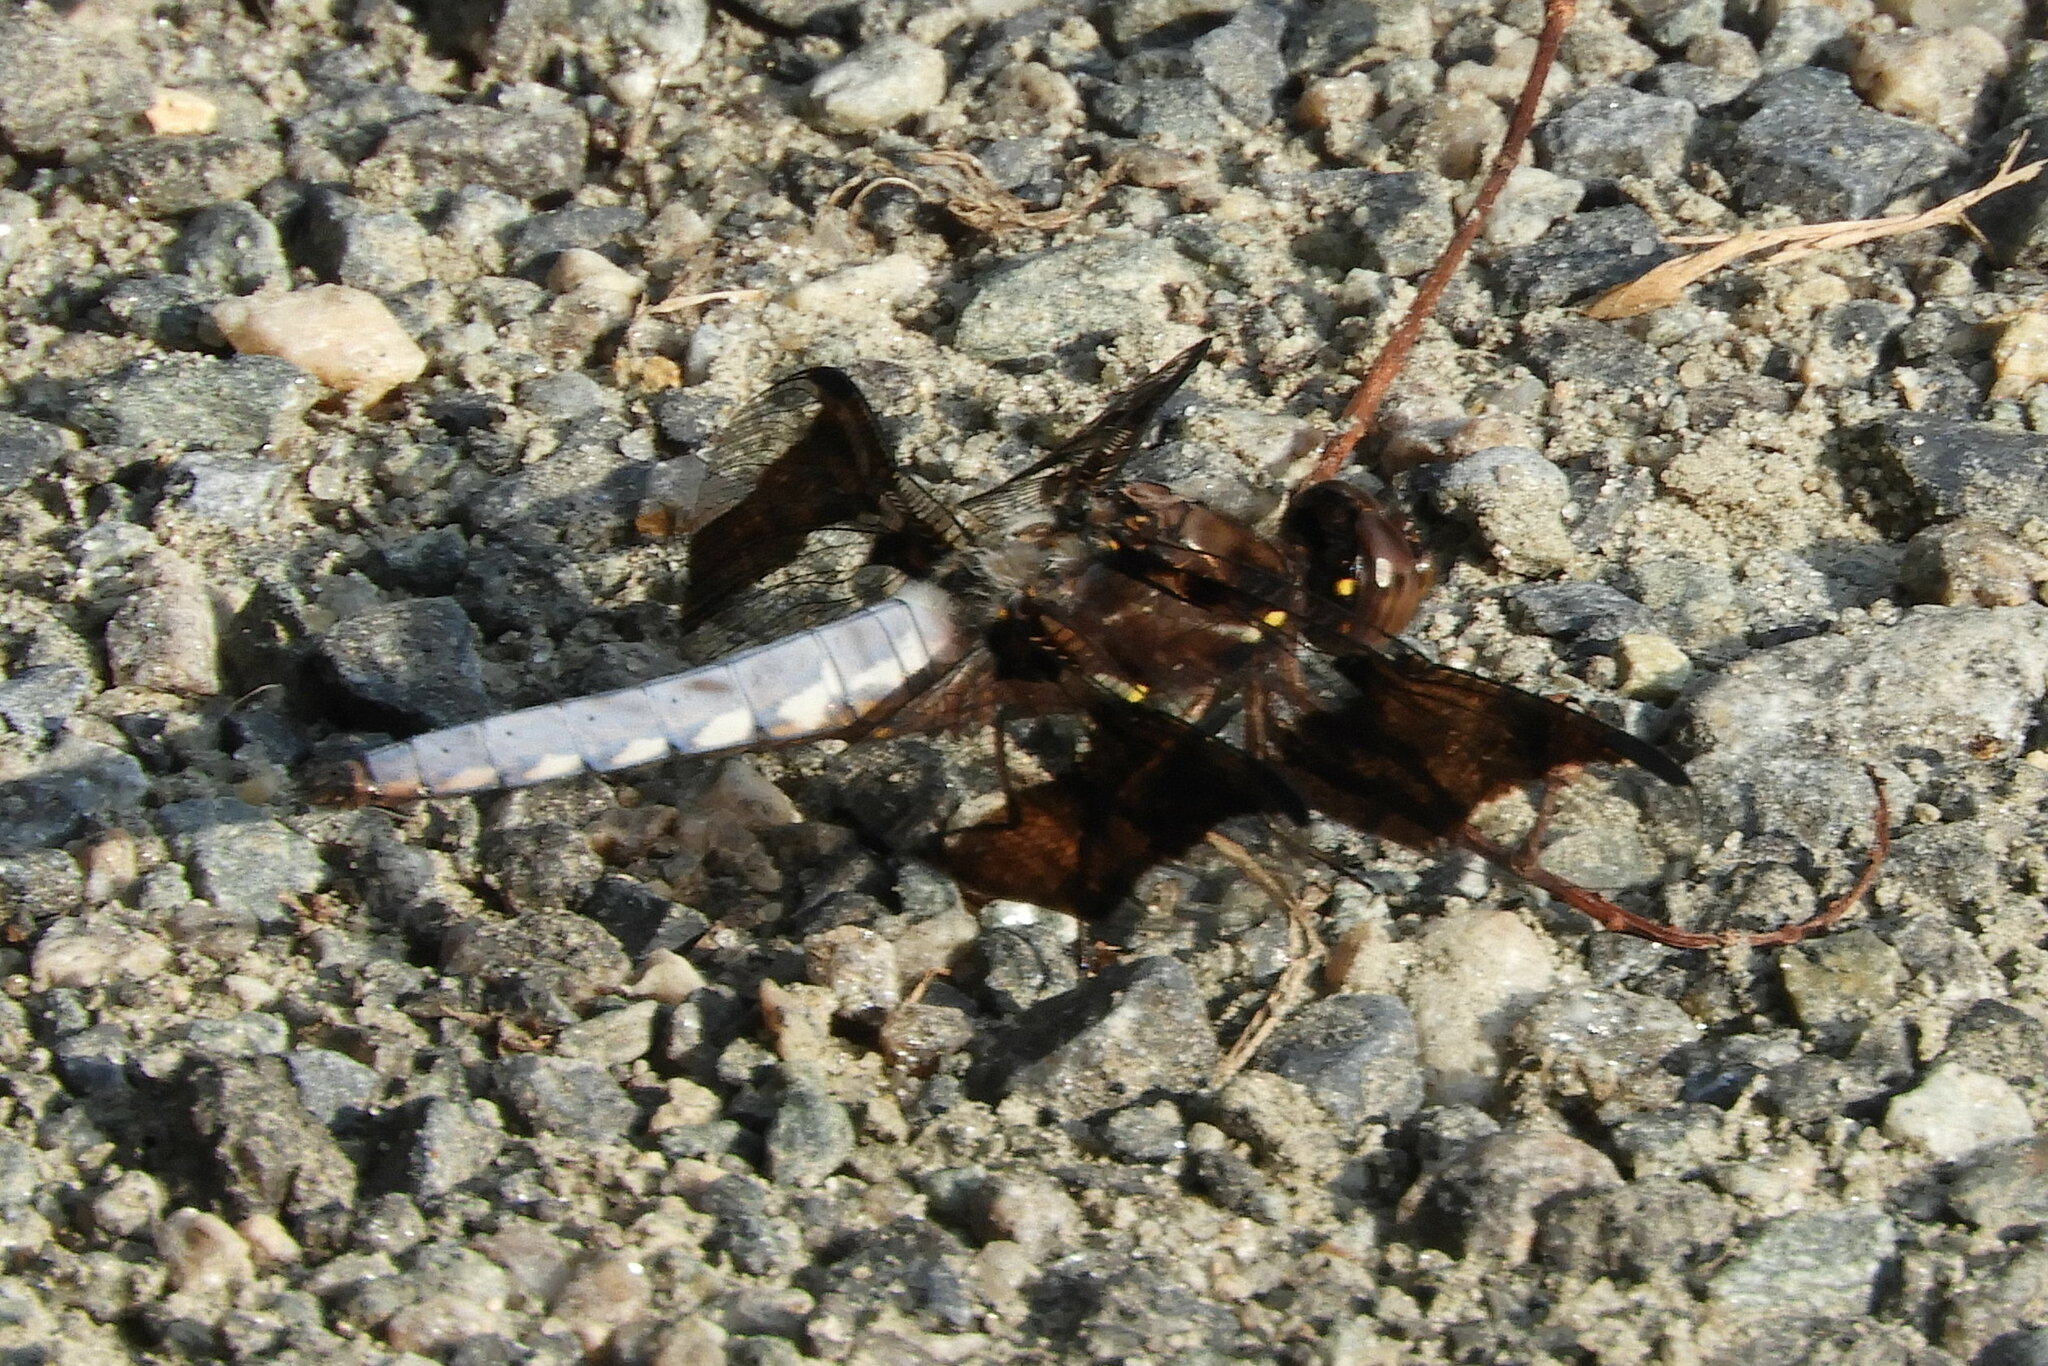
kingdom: Animalia
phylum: Arthropoda
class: Insecta
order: Odonata
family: Libellulidae
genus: Plathemis
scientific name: Plathemis lydia
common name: Common whitetail
